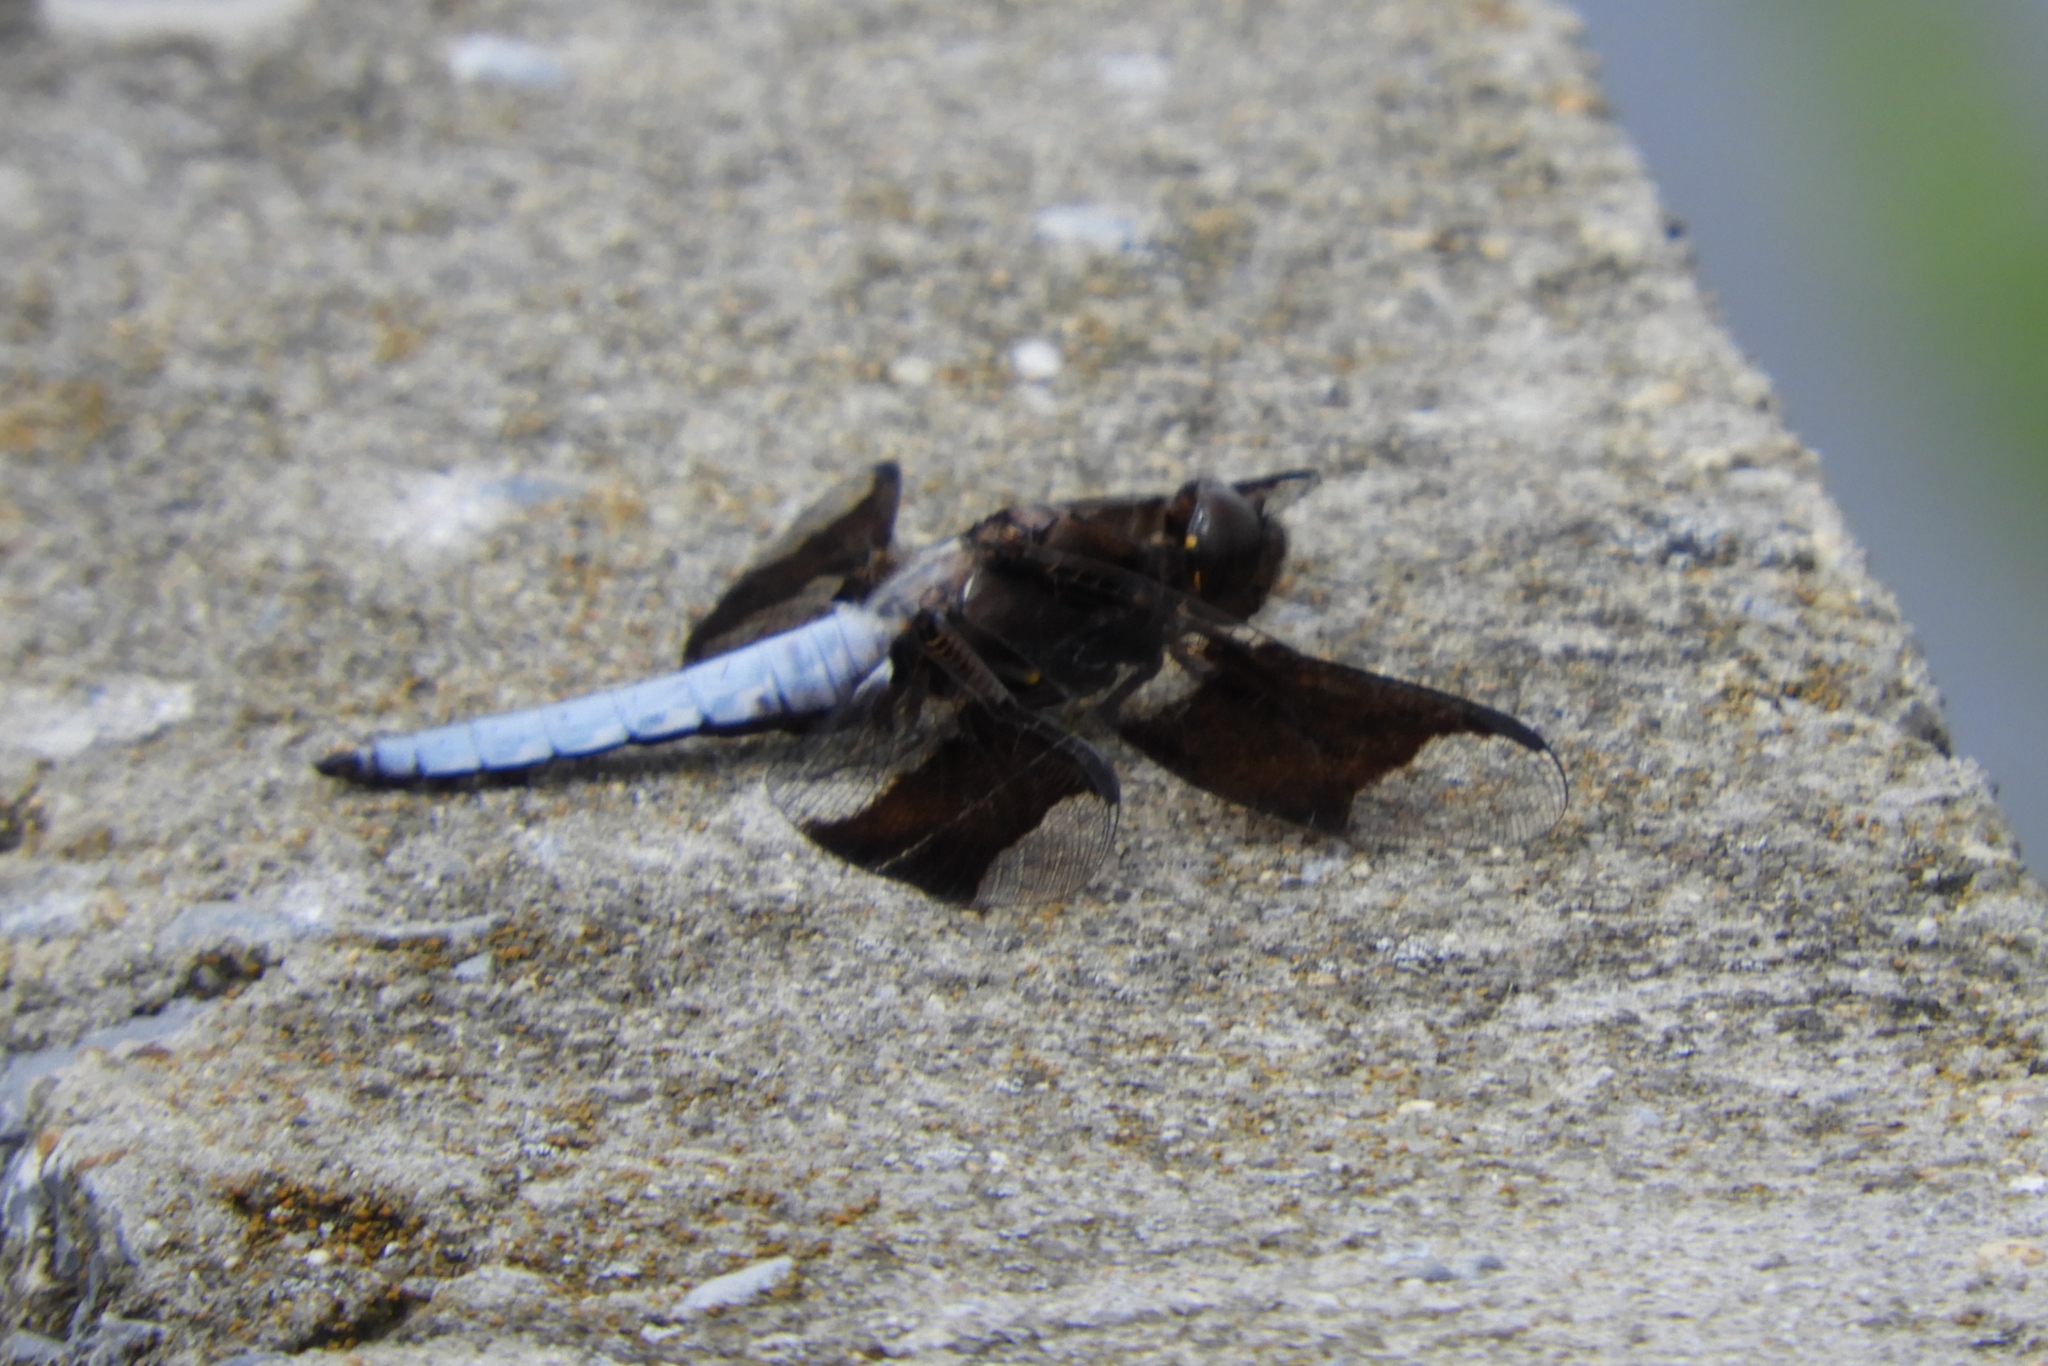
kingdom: Animalia
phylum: Arthropoda
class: Insecta
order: Odonata
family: Libellulidae
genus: Plathemis
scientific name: Plathemis lydia
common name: Common whitetail
